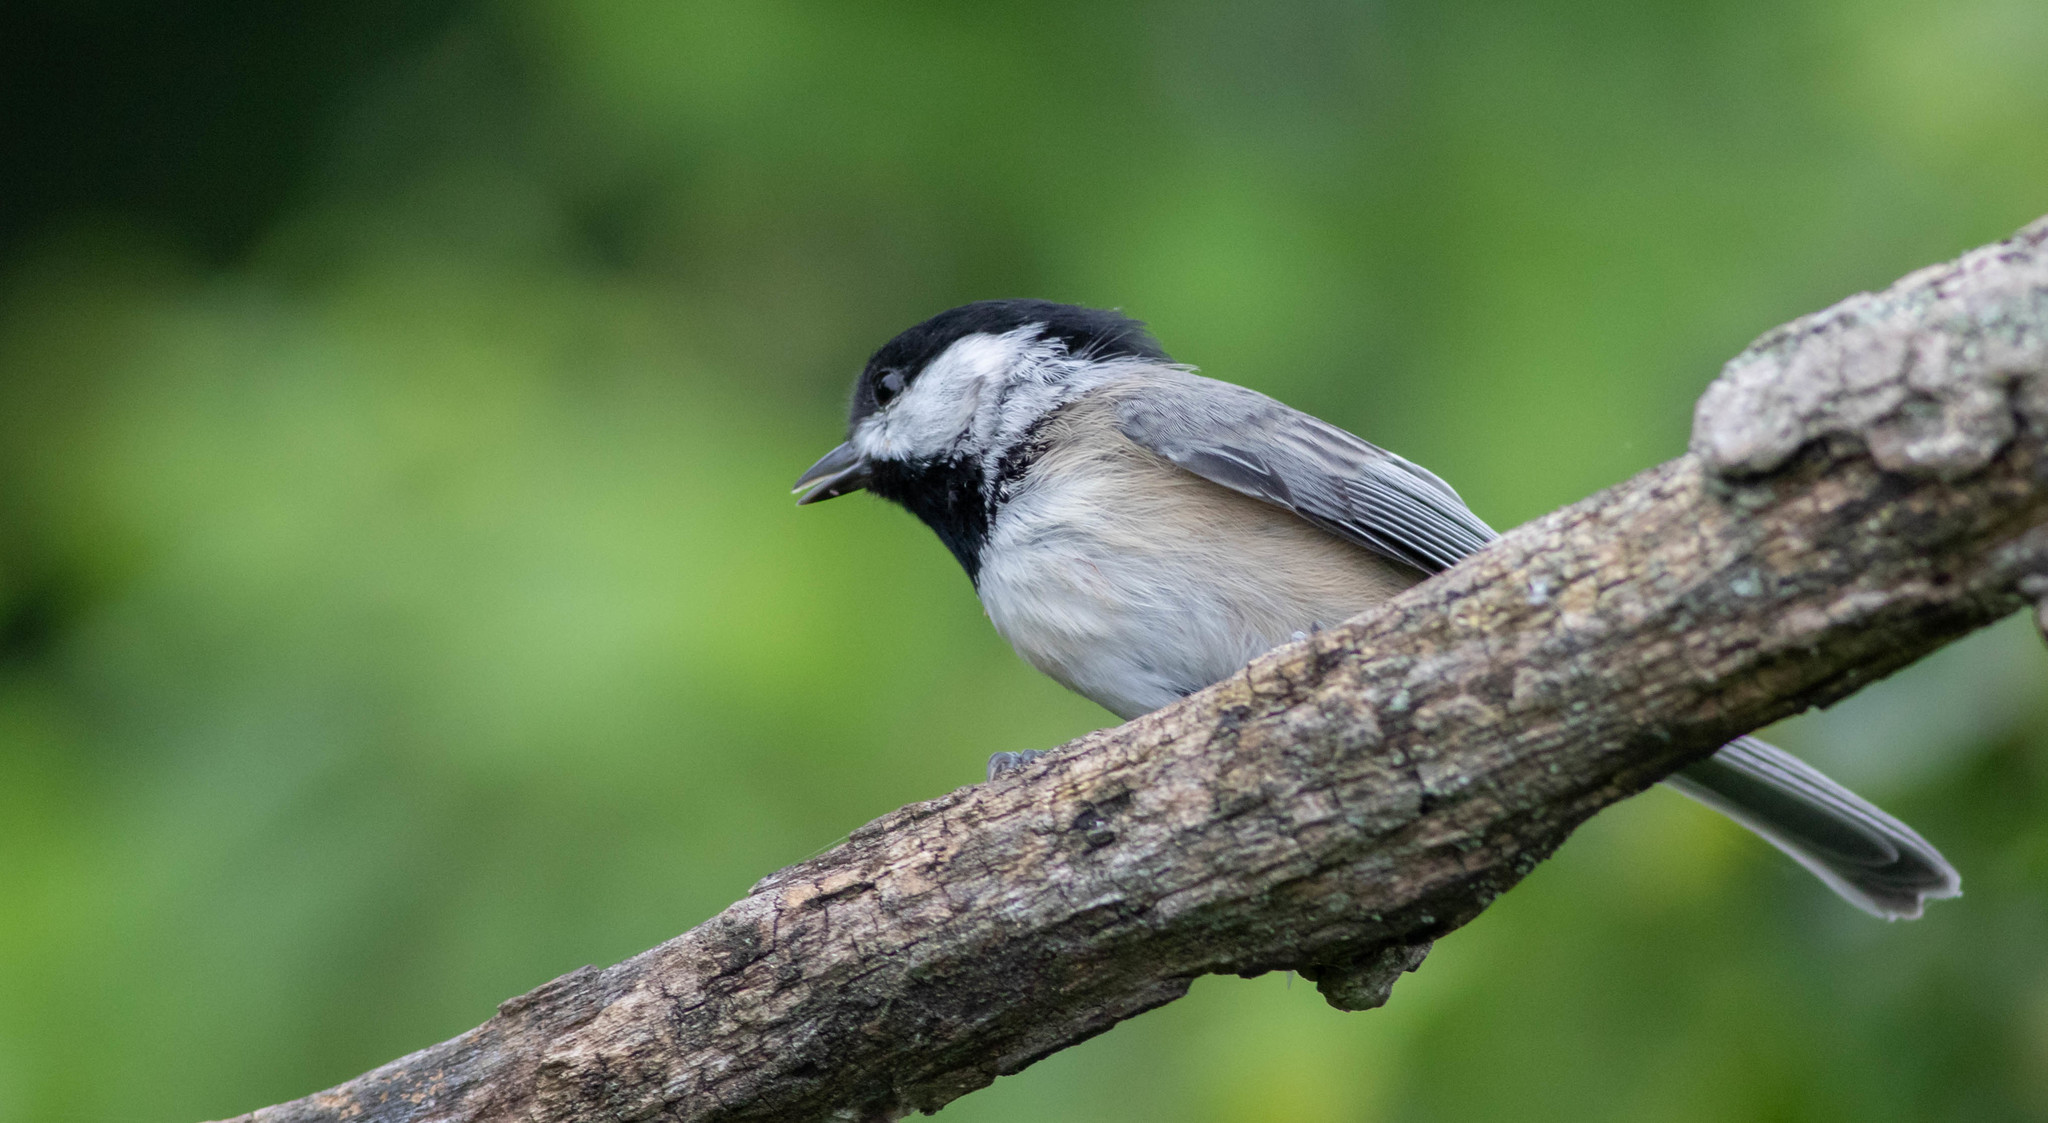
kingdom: Animalia
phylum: Chordata
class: Aves
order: Passeriformes
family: Paridae
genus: Poecile
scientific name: Poecile carolinensis
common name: Carolina chickadee
